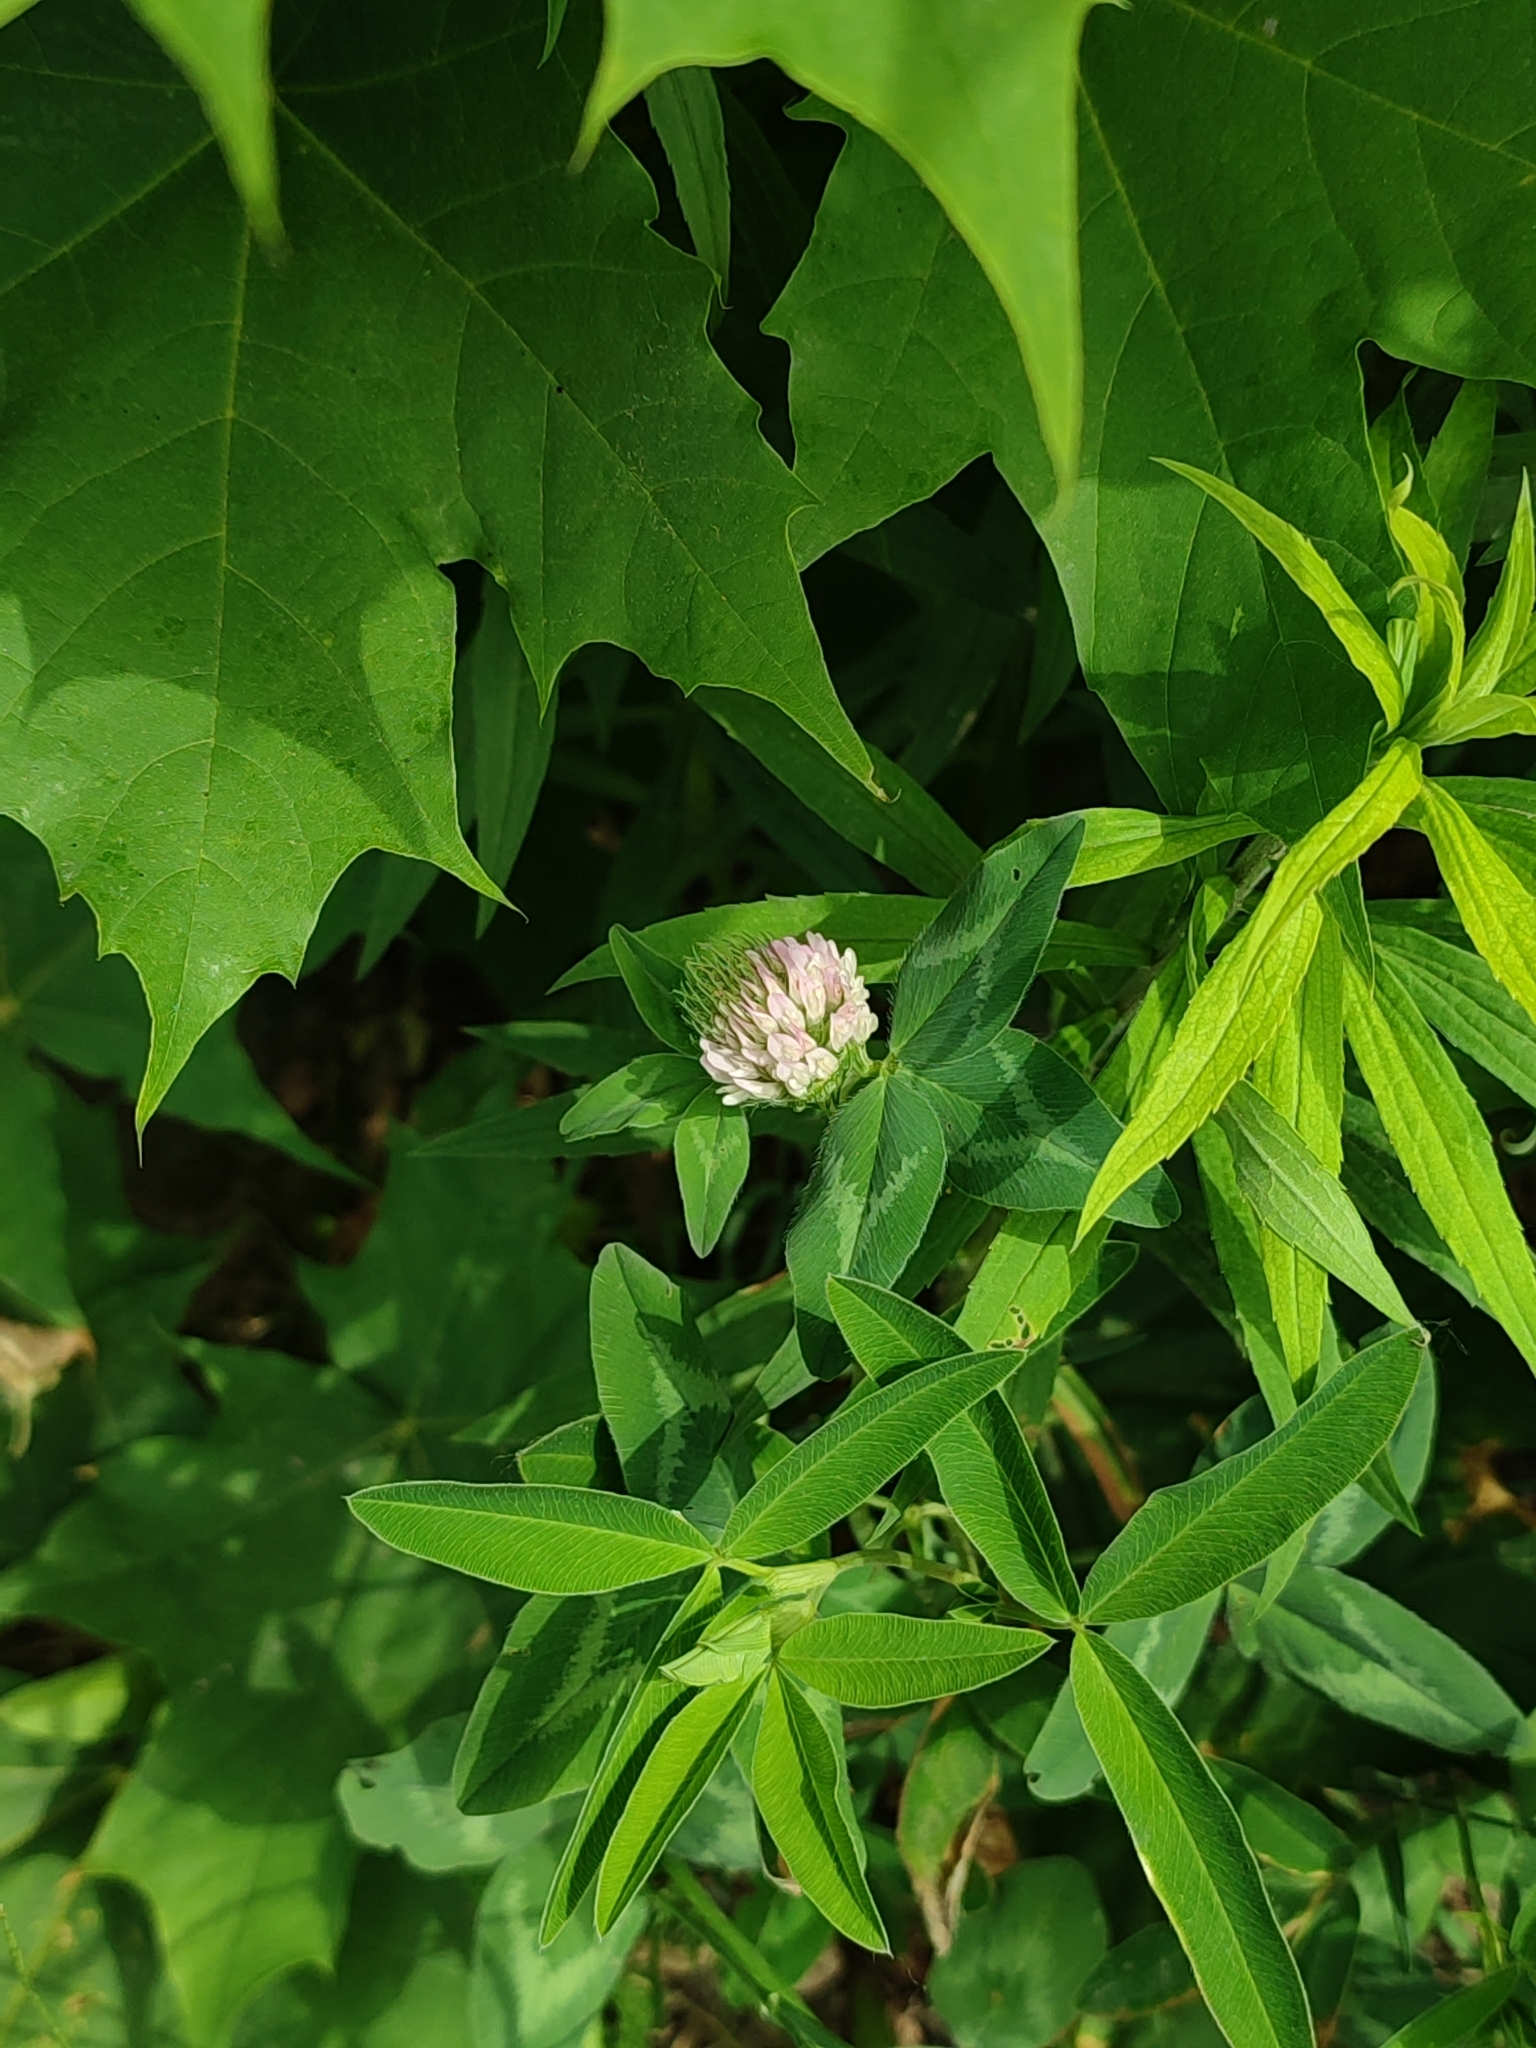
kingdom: Plantae
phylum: Tracheophyta
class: Magnoliopsida
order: Fabales
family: Fabaceae
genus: Trifolium
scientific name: Trifolium pratense
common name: Red clover
